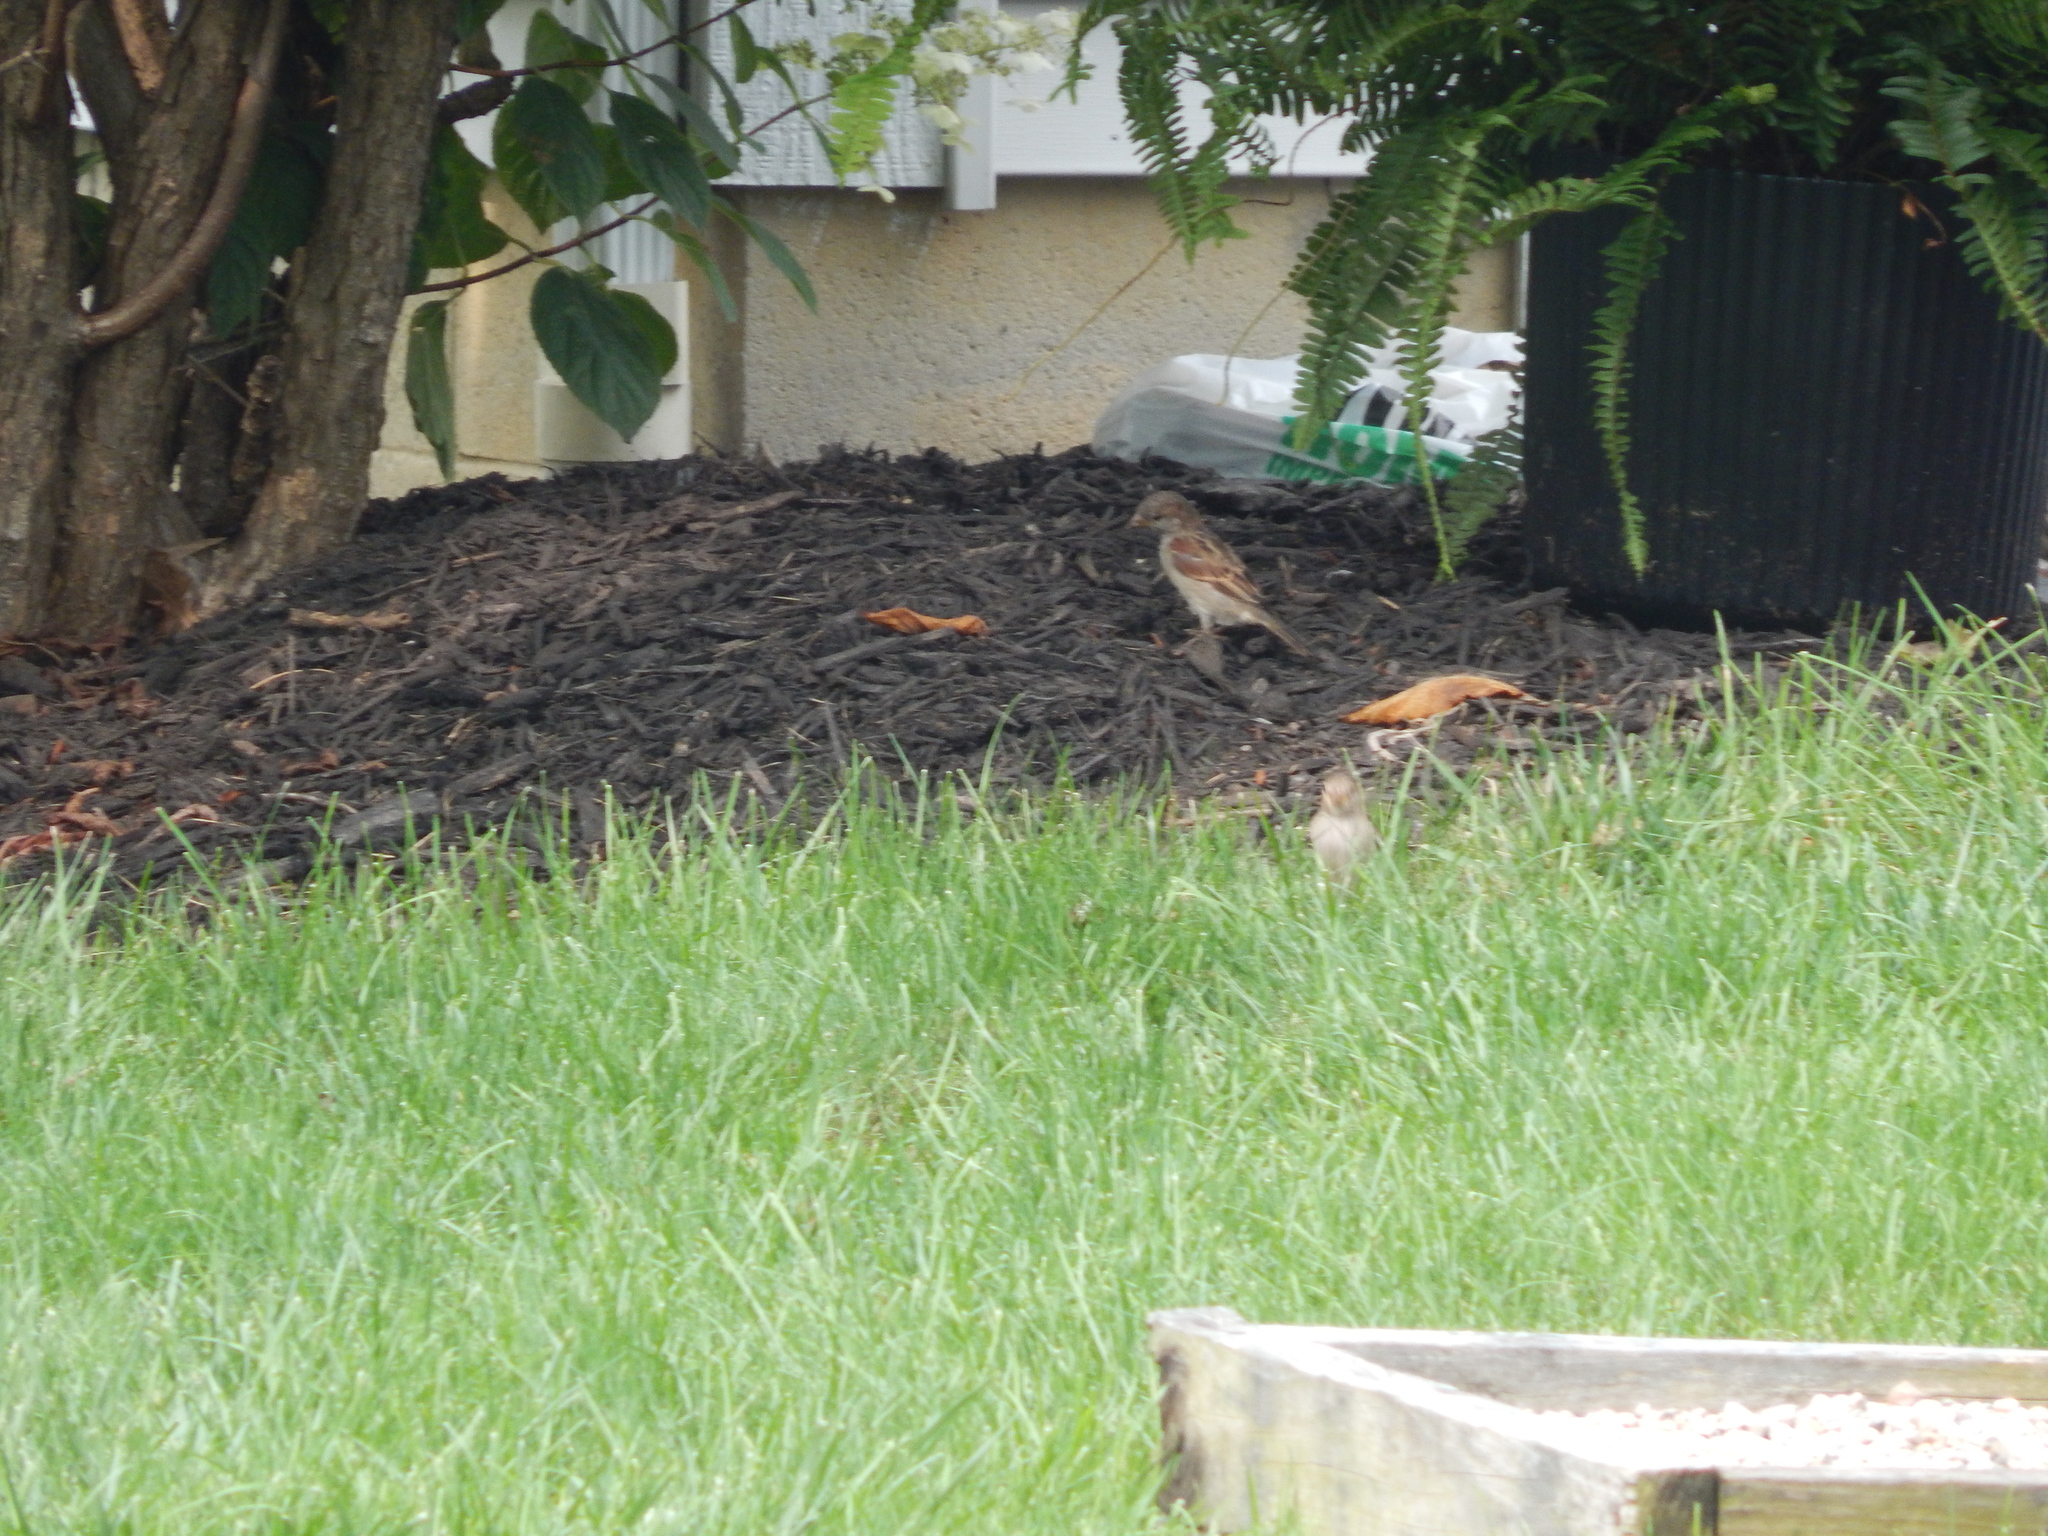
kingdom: Animalia
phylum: Chordata
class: Aves
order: Passeriformes
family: Passeridae
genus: Passer
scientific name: Passer domesticus
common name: House sparrow
